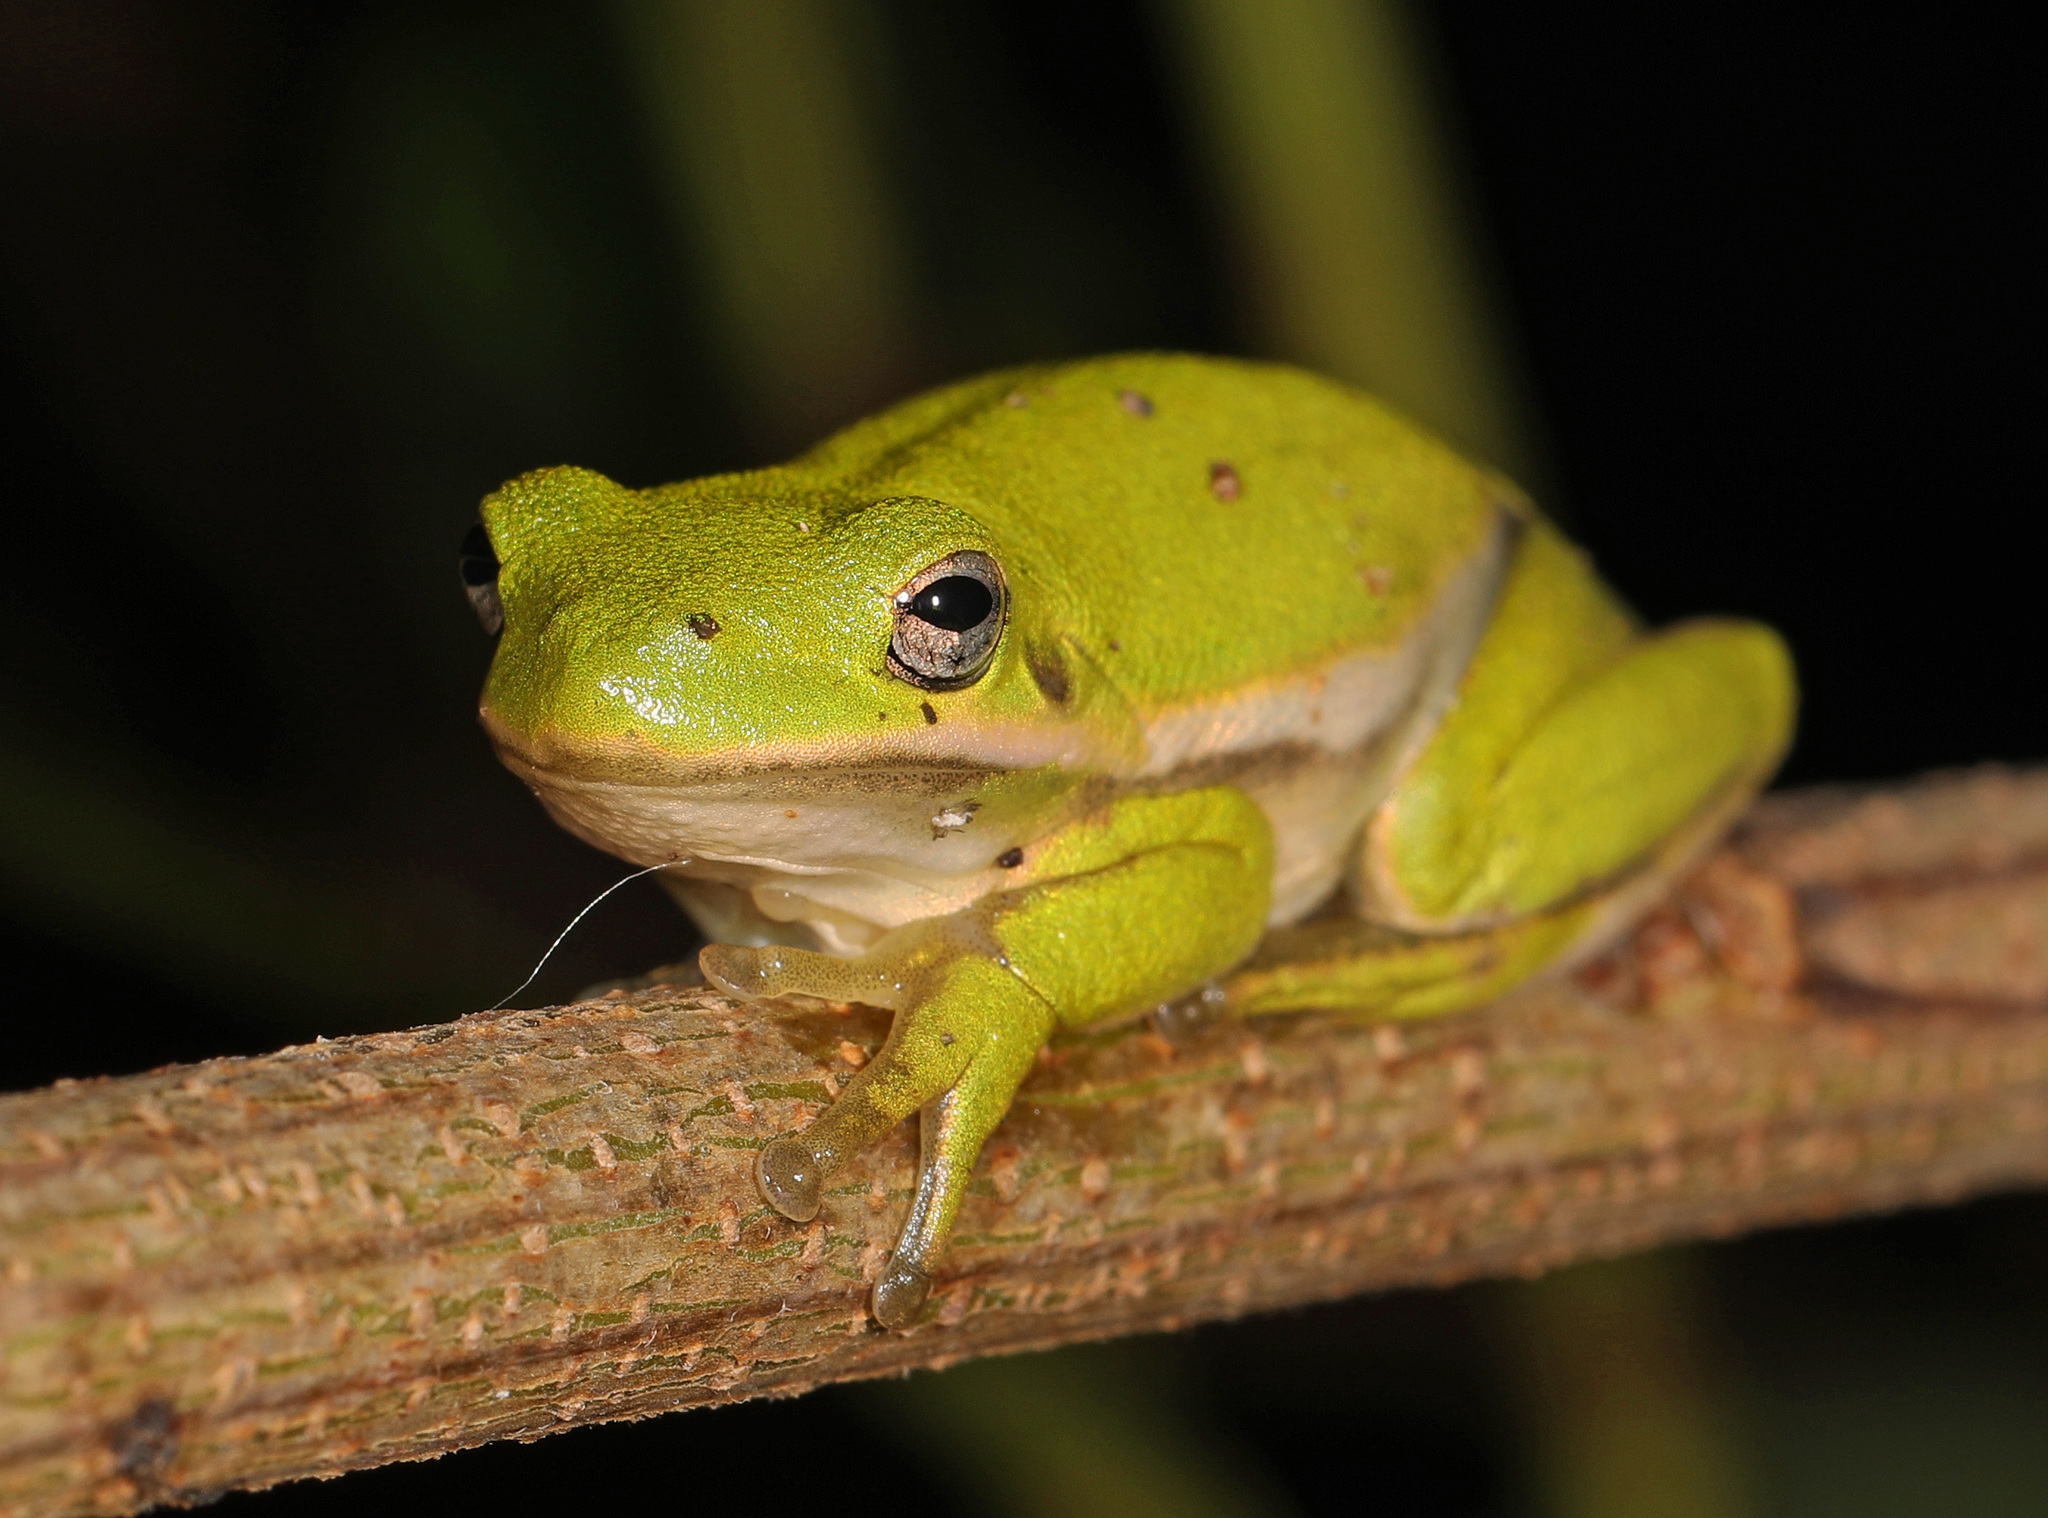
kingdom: Animalia
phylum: Chordata
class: Amphibia
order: Anura
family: Hylidae
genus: Dryophytes
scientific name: Dryophytes cinereus
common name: Green treefrog
